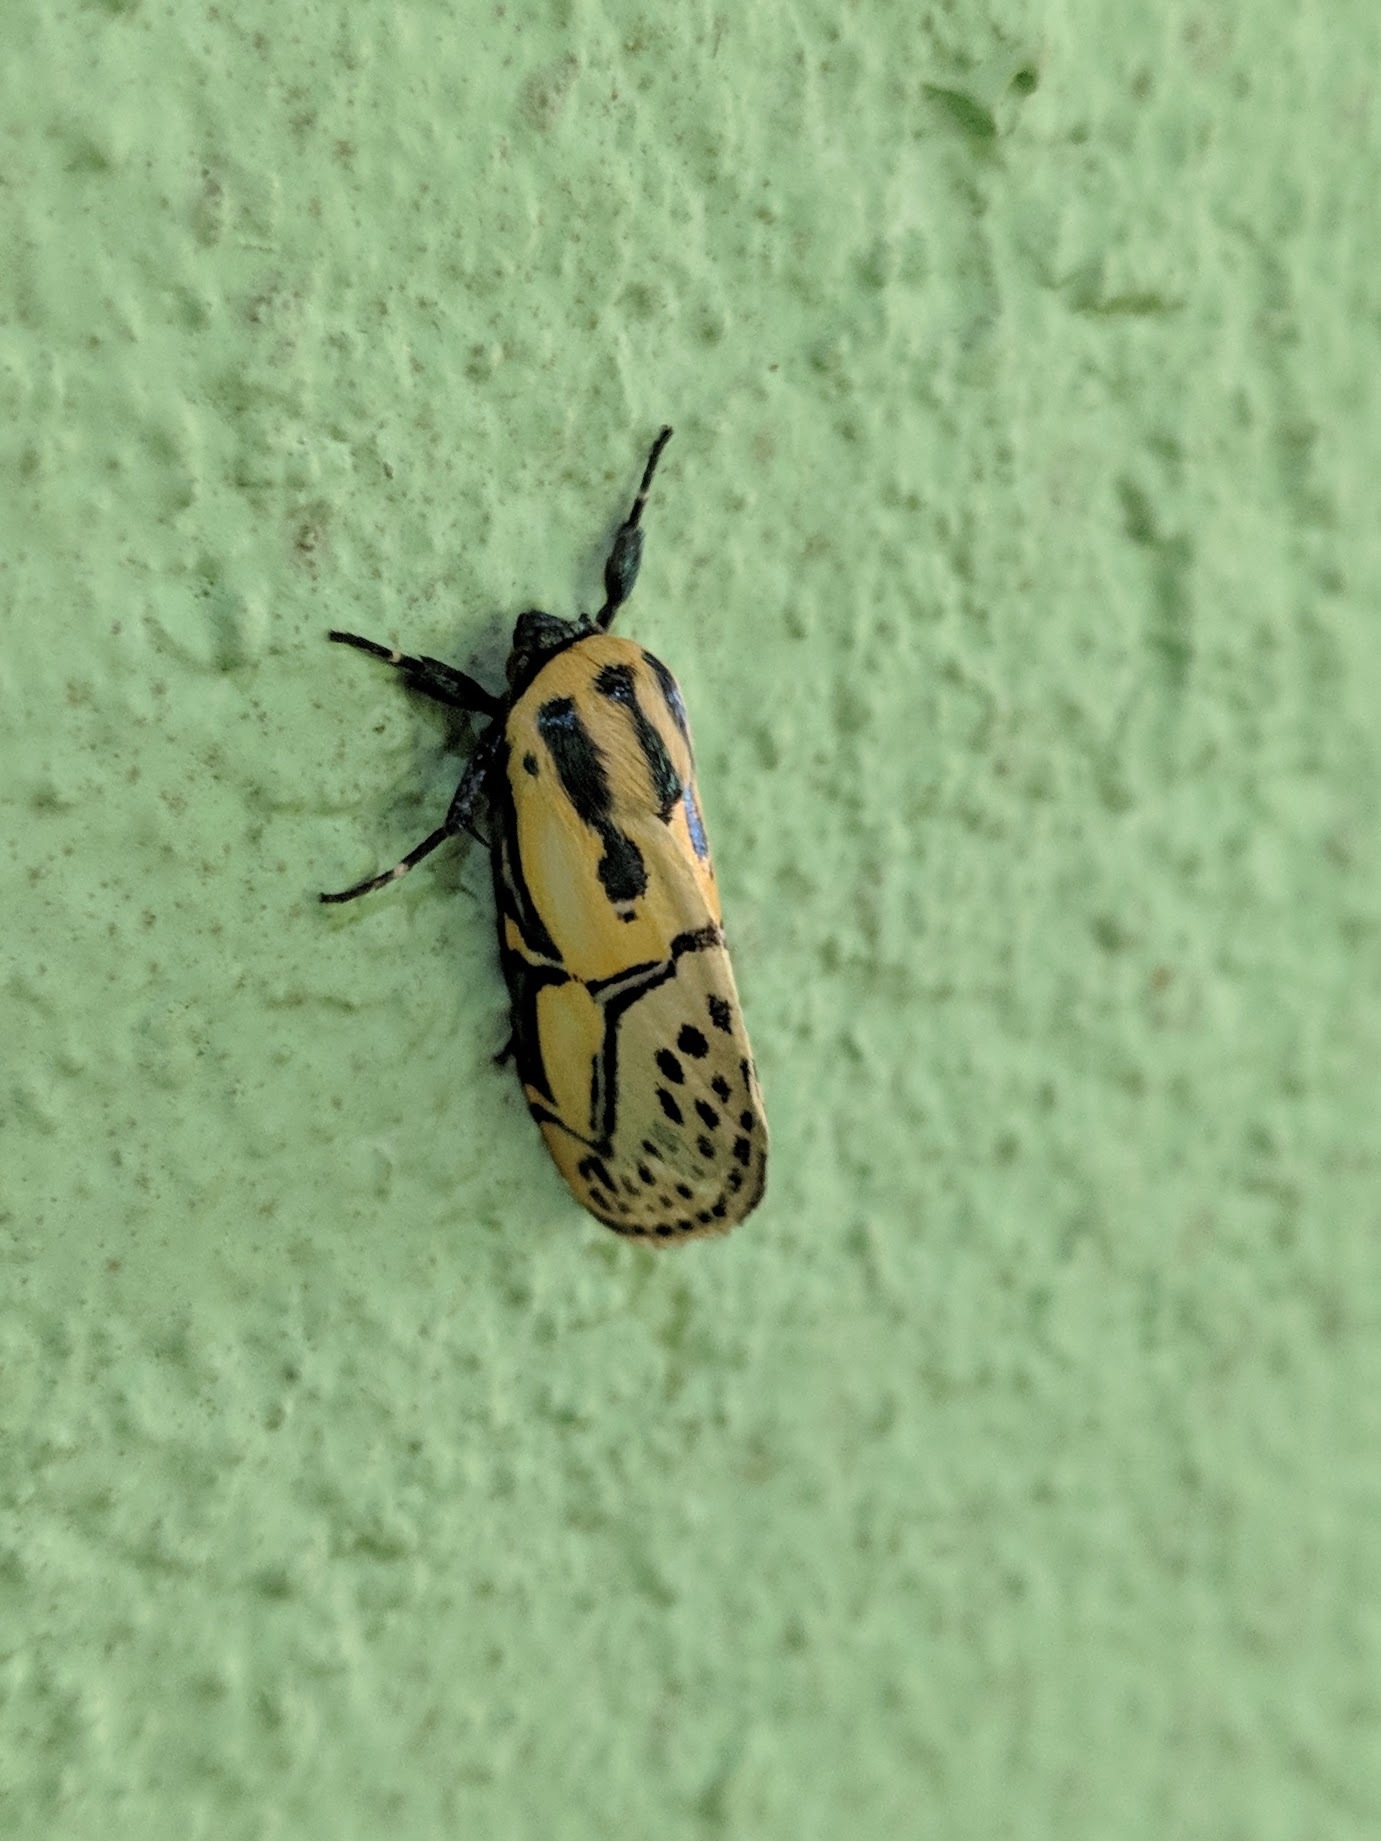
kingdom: Animalia
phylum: Arthropoda
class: Insecta
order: Lepidoptera
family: Erebidae
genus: Diphthera
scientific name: Diphthera festiva
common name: Hieroglyphic moth
